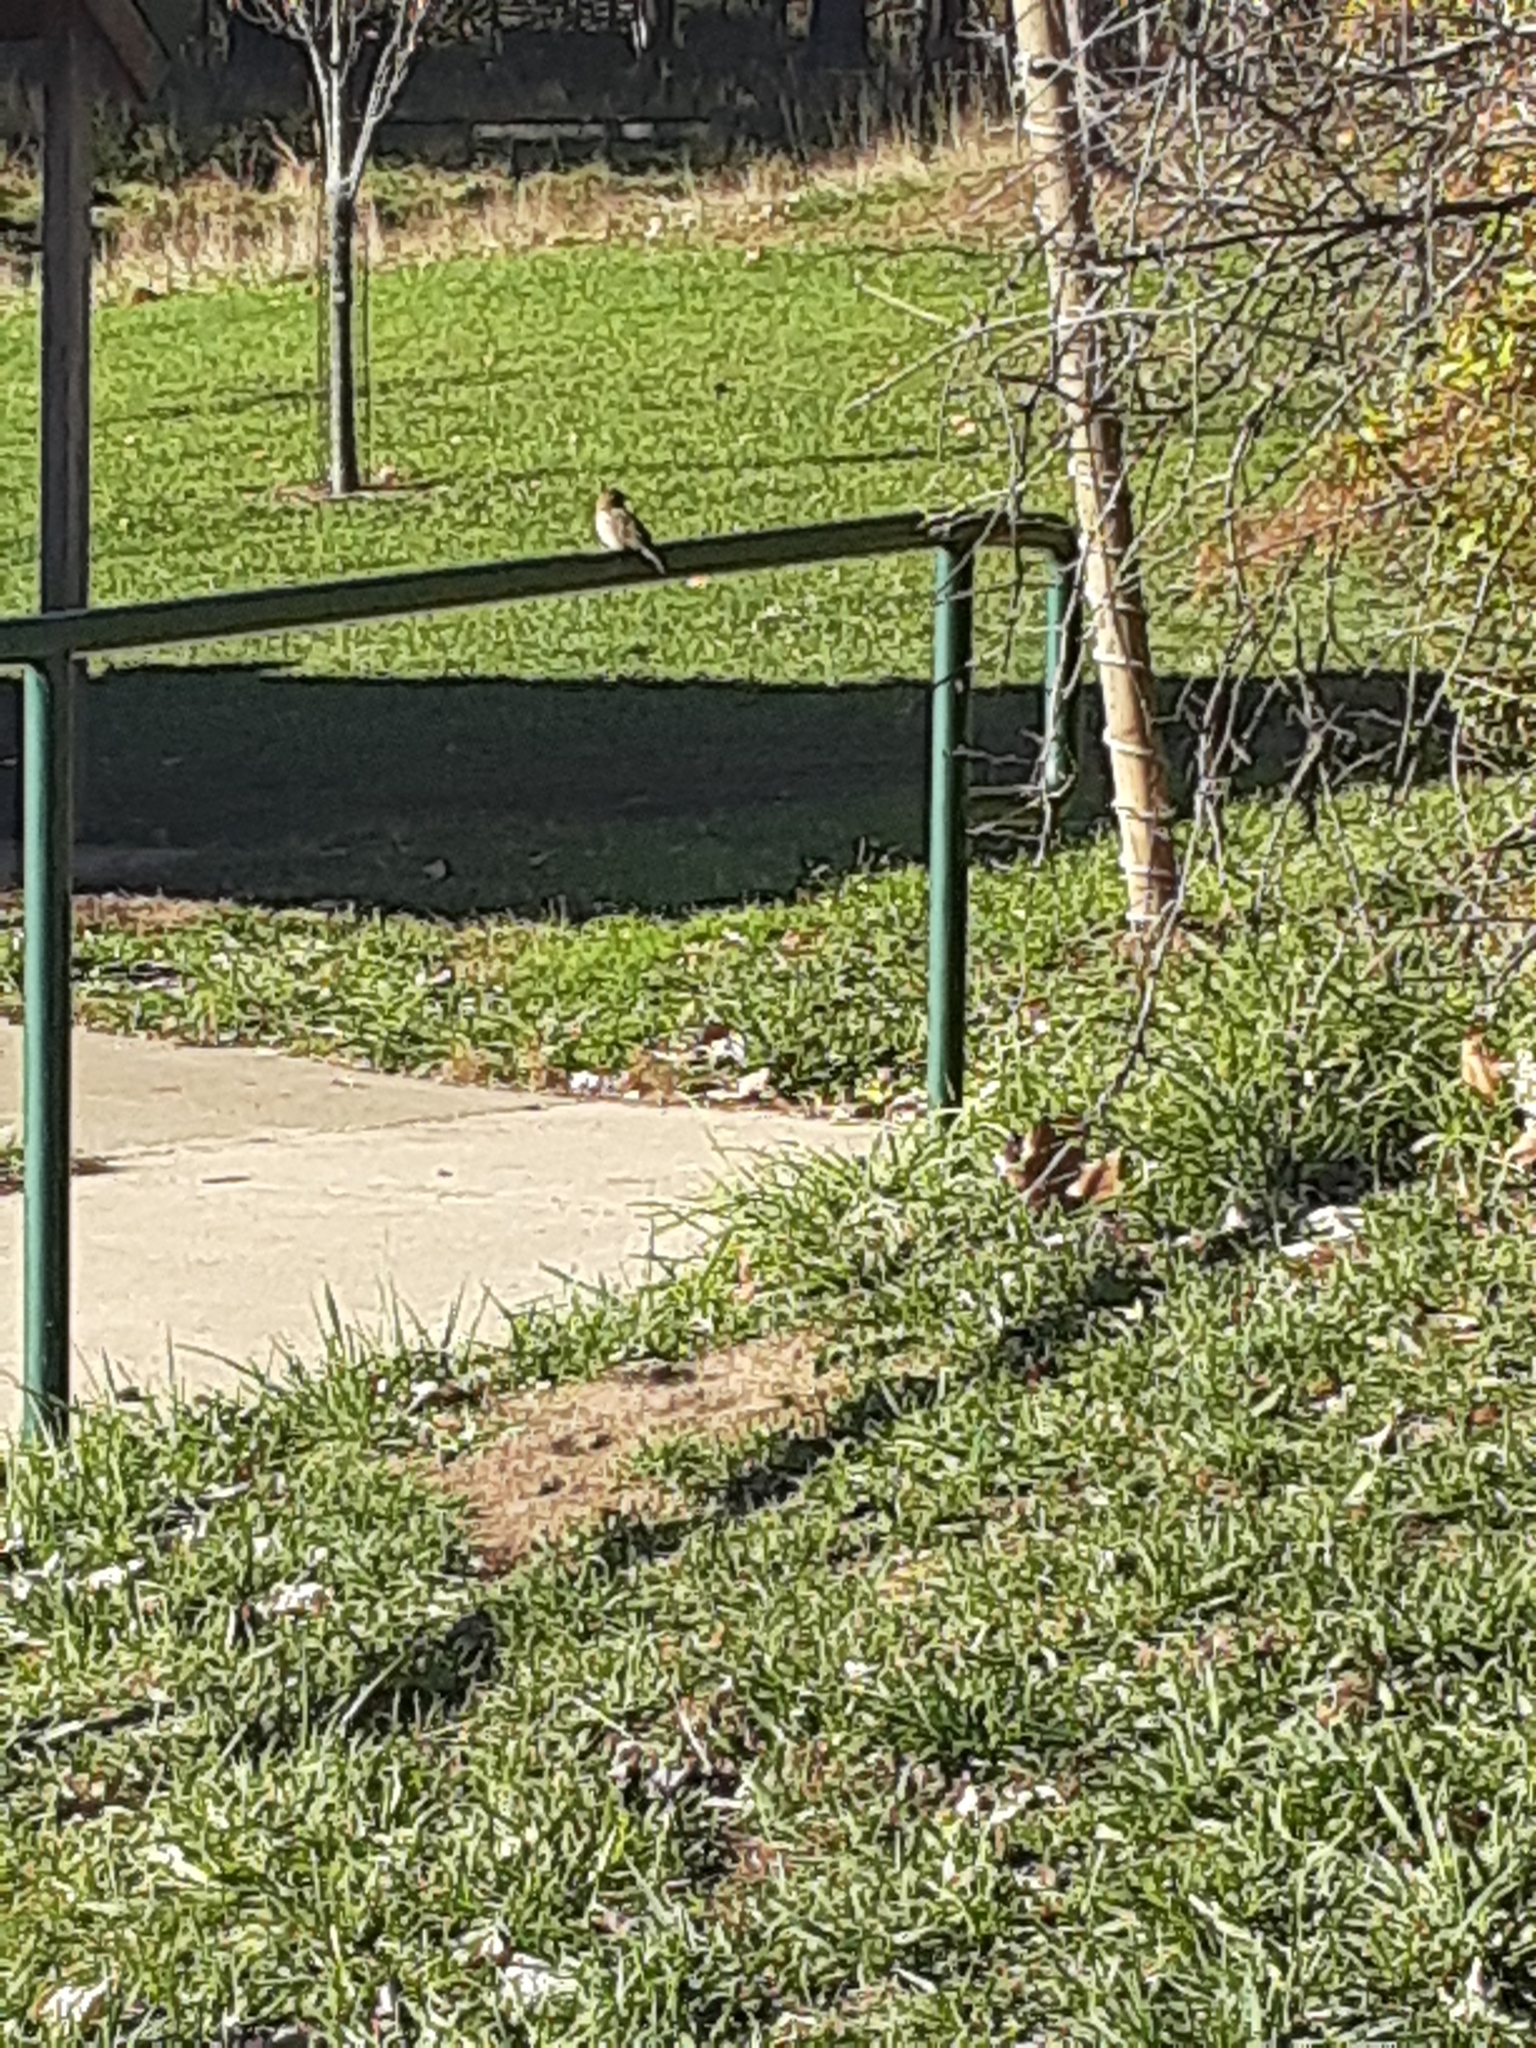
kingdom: Animalia
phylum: Chordata
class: Aves
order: Passeriformes
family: Passeridae
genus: Passer
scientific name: Passer domesticus
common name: House sparrow
